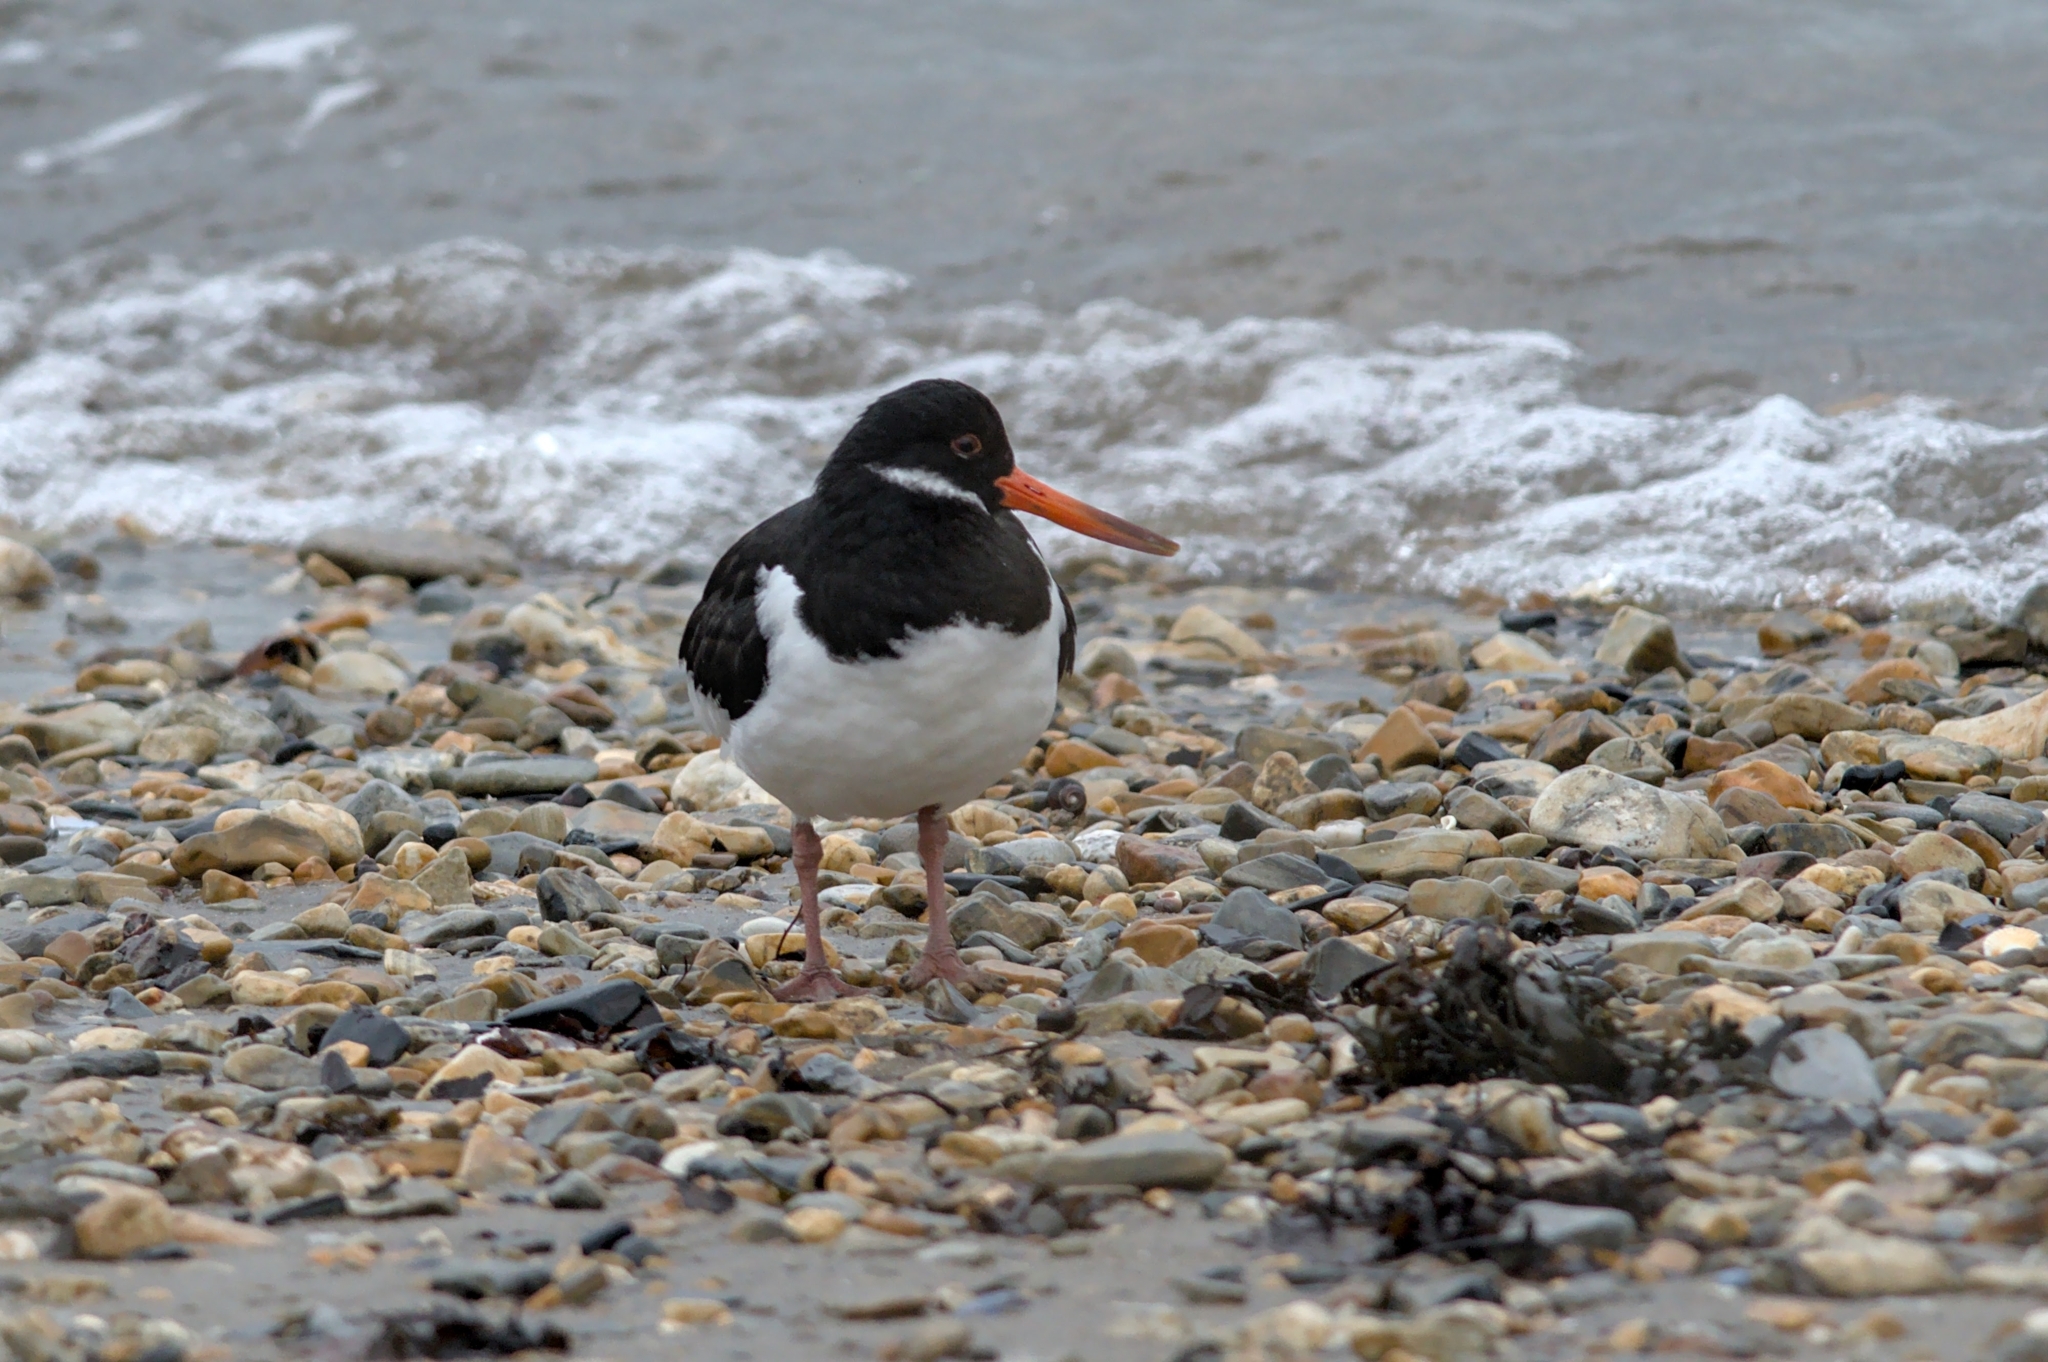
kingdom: Animalia
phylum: Chordata
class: Aves
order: Charadriiformes
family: Haematopodidae
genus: Haematopus
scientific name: Haematopus ostralegus
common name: Eurasian oystercatcher
